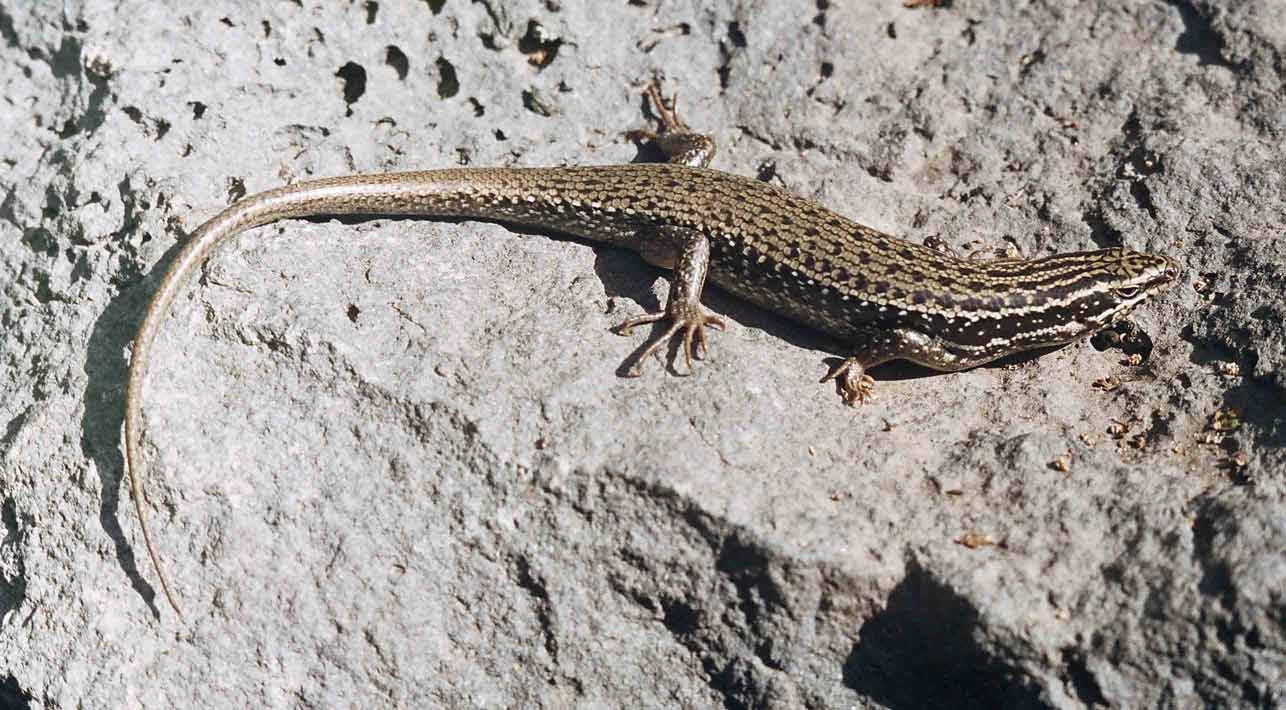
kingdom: Animalia
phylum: Chordata
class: Squamata
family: Scincidae
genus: Heremites
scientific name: Heremites septemtaeniatus
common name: Golden grass mabuya
